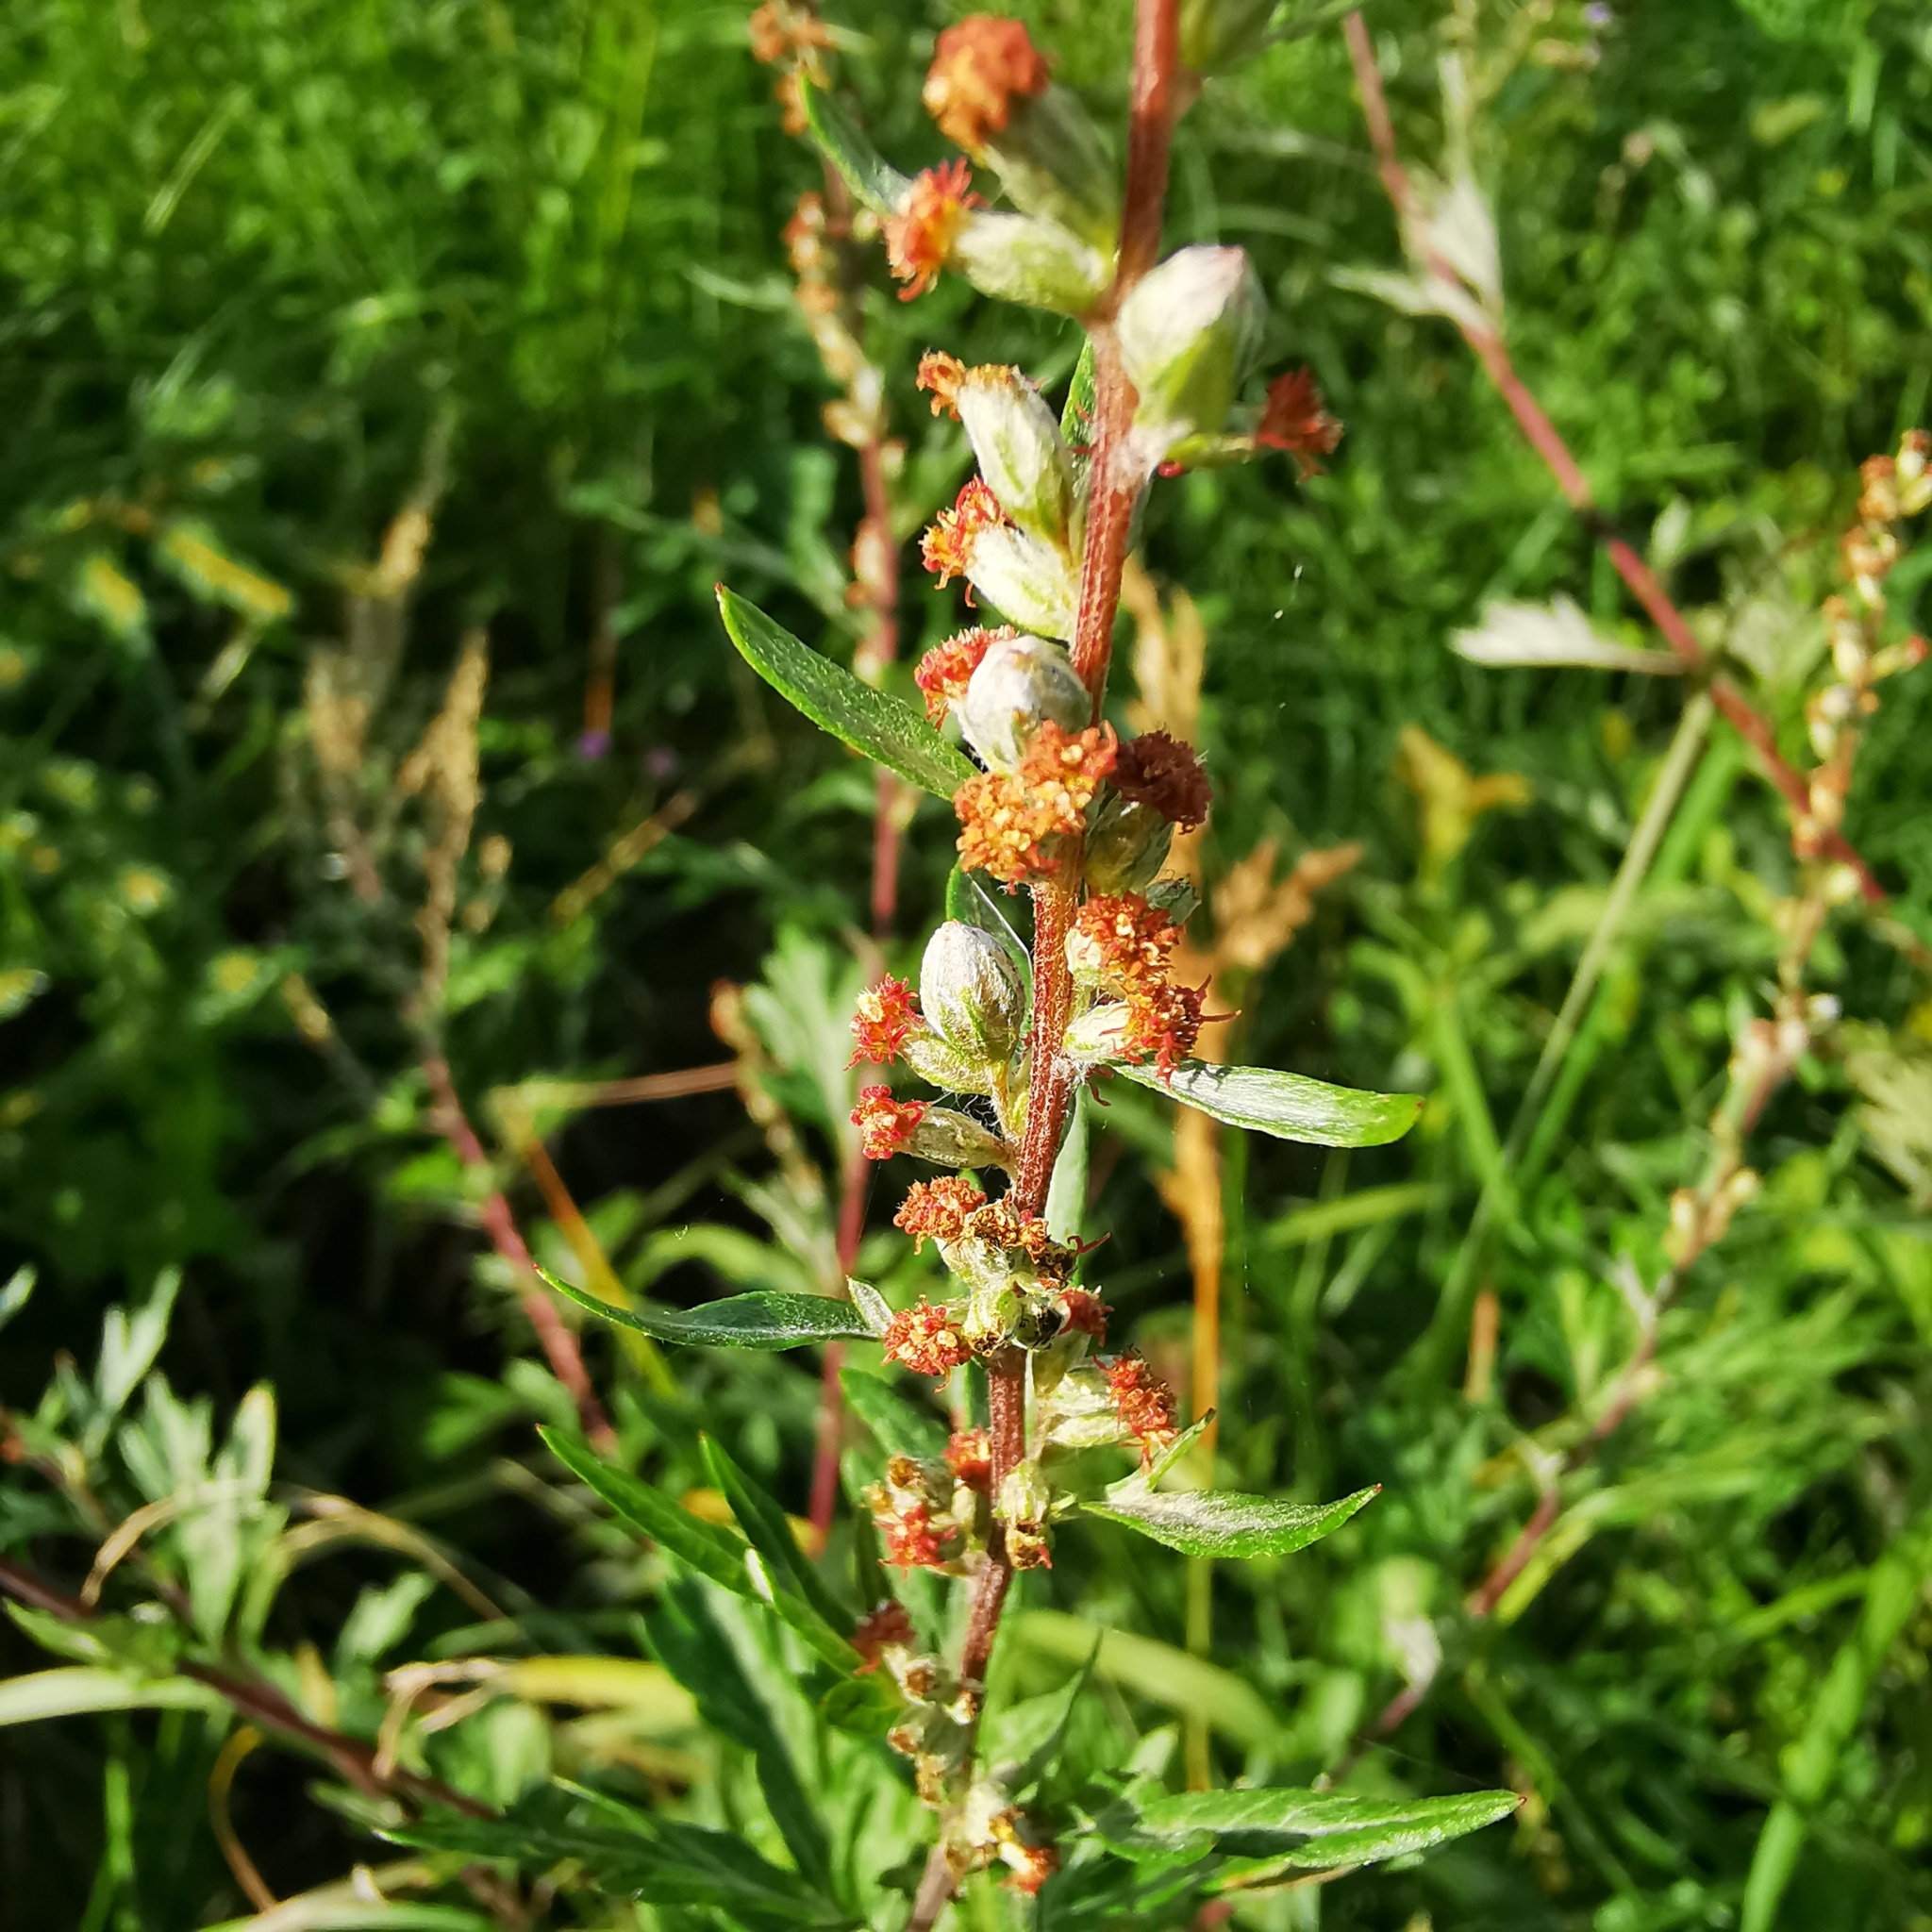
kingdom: Plantae
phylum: Tracheophyta
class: Magnoliopsida
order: Asterales
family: Asteraceae
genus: Artemisia
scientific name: Artemisia vulgaris
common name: Mugwort
